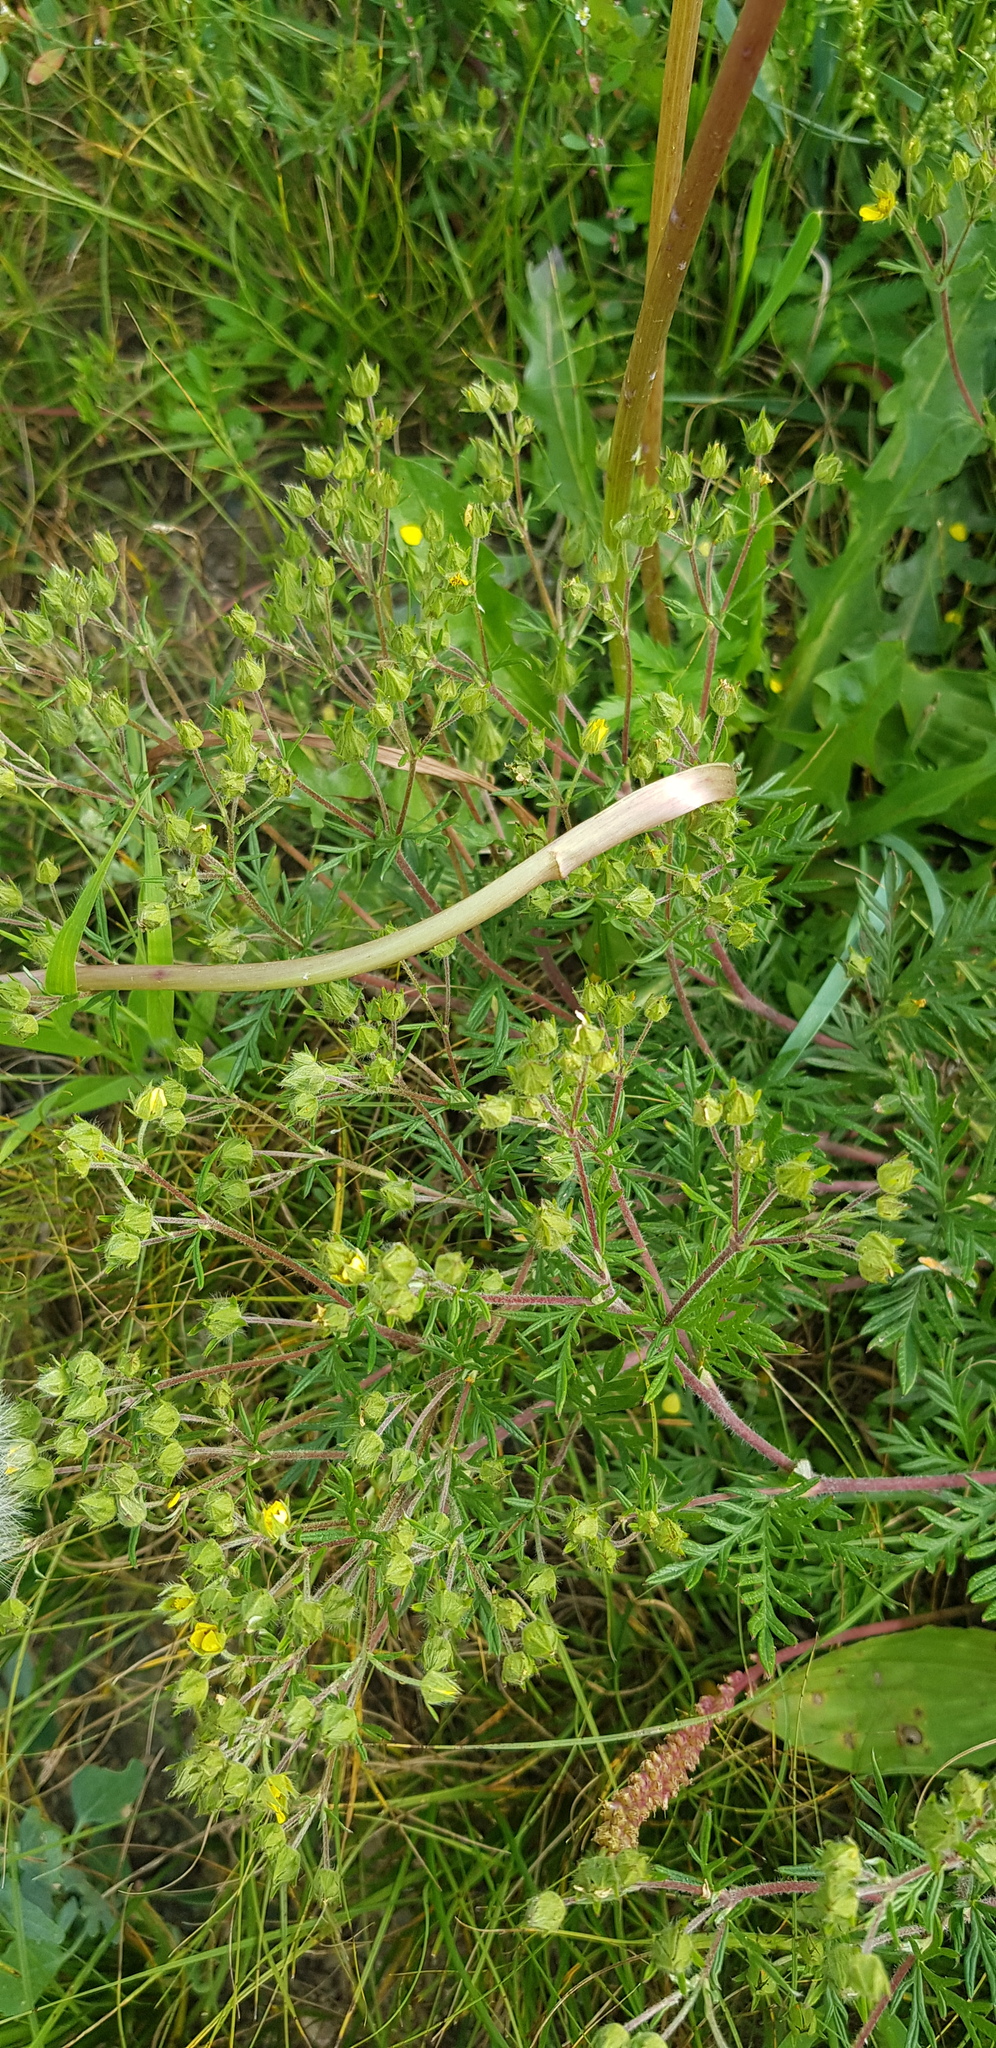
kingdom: Plantae
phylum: Tracheophyta
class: Magnoliopsida
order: Rosales
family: Rosaceae
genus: Potentilla
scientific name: Potentilla tergemina
